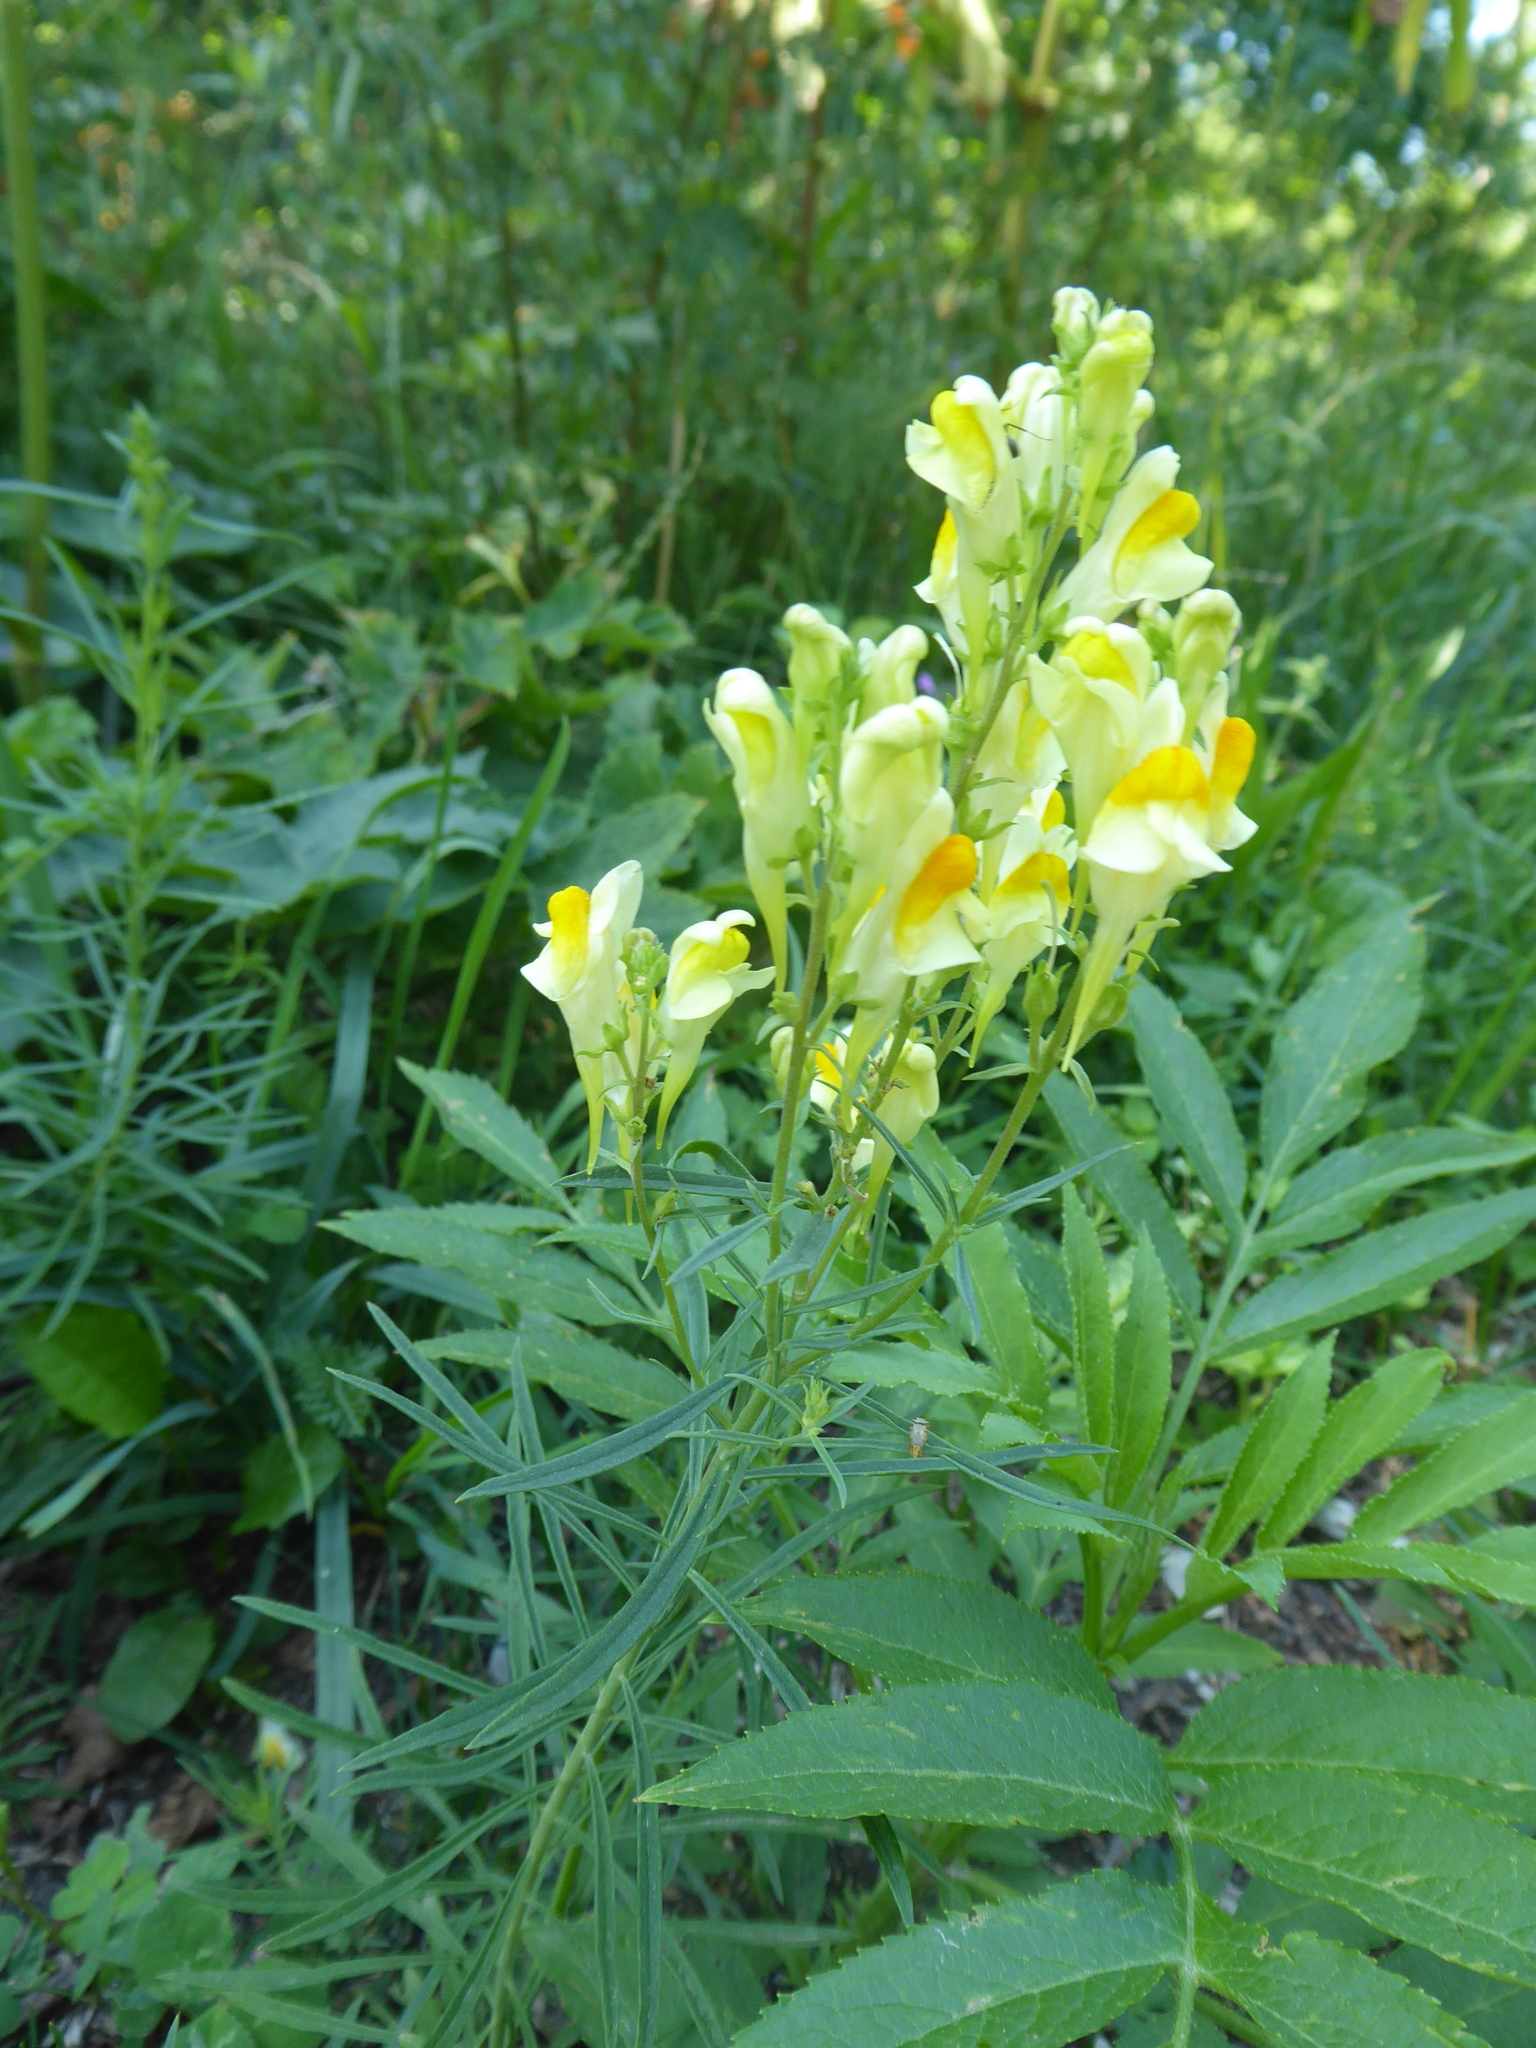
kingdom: Plantae
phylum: Tracheophyta
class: Magnoliopsida
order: Lamiales
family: Plantaginaceae
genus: Linaria
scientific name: Linaria vulgaris
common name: Butter and eggs
